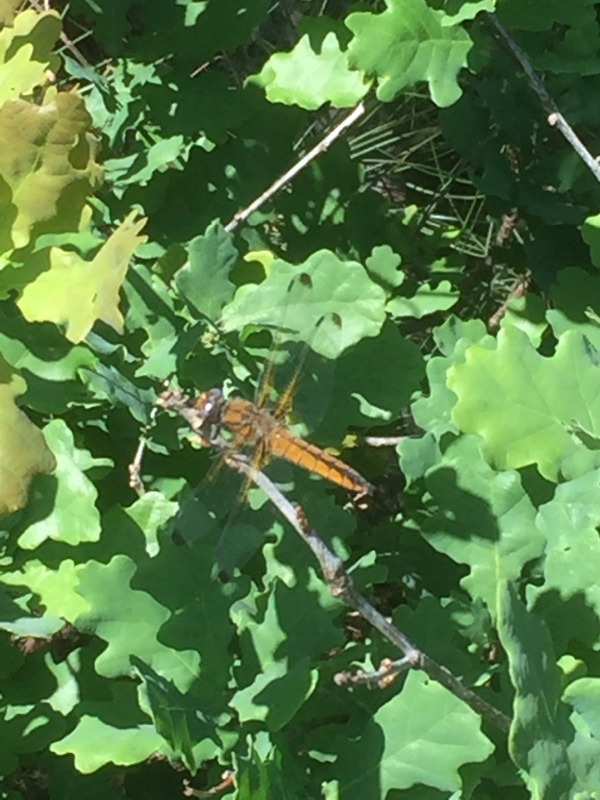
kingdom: Animalia
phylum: Arthropoda
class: Insecta
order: Odonata
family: Libellulidae
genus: Libellula
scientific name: Libellula fulva
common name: Blue chaser
